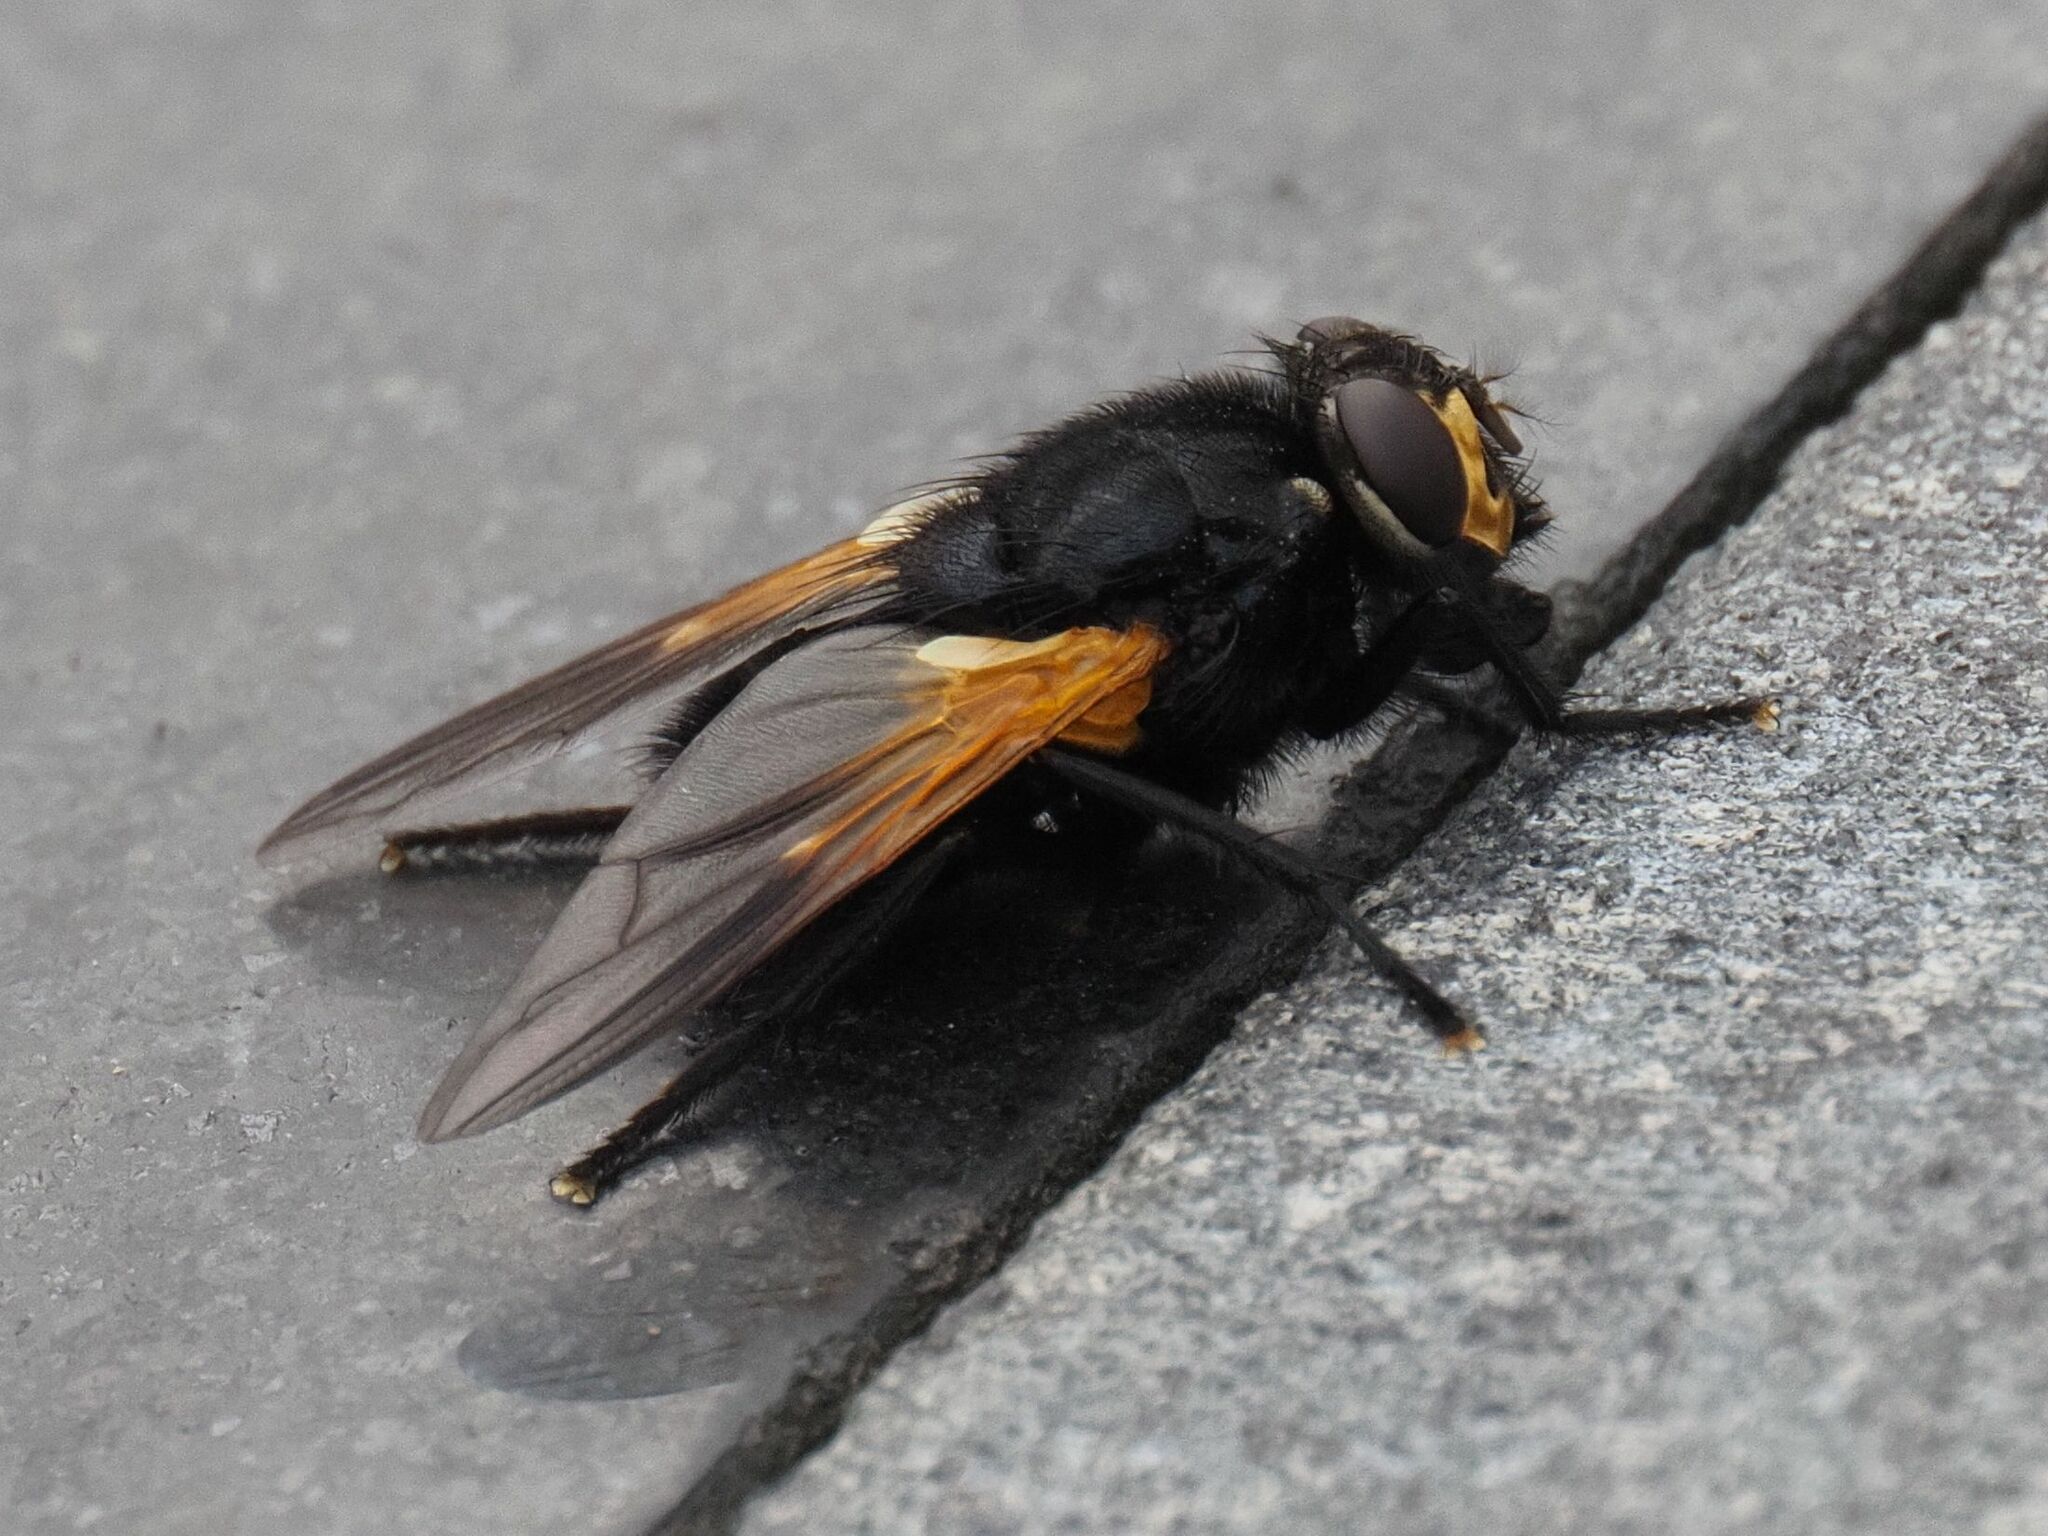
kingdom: Animalia
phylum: Arthropoda
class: Insecta
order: Diptera
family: Muscidae
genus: Mesembrina
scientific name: Mesembrina meridiana
